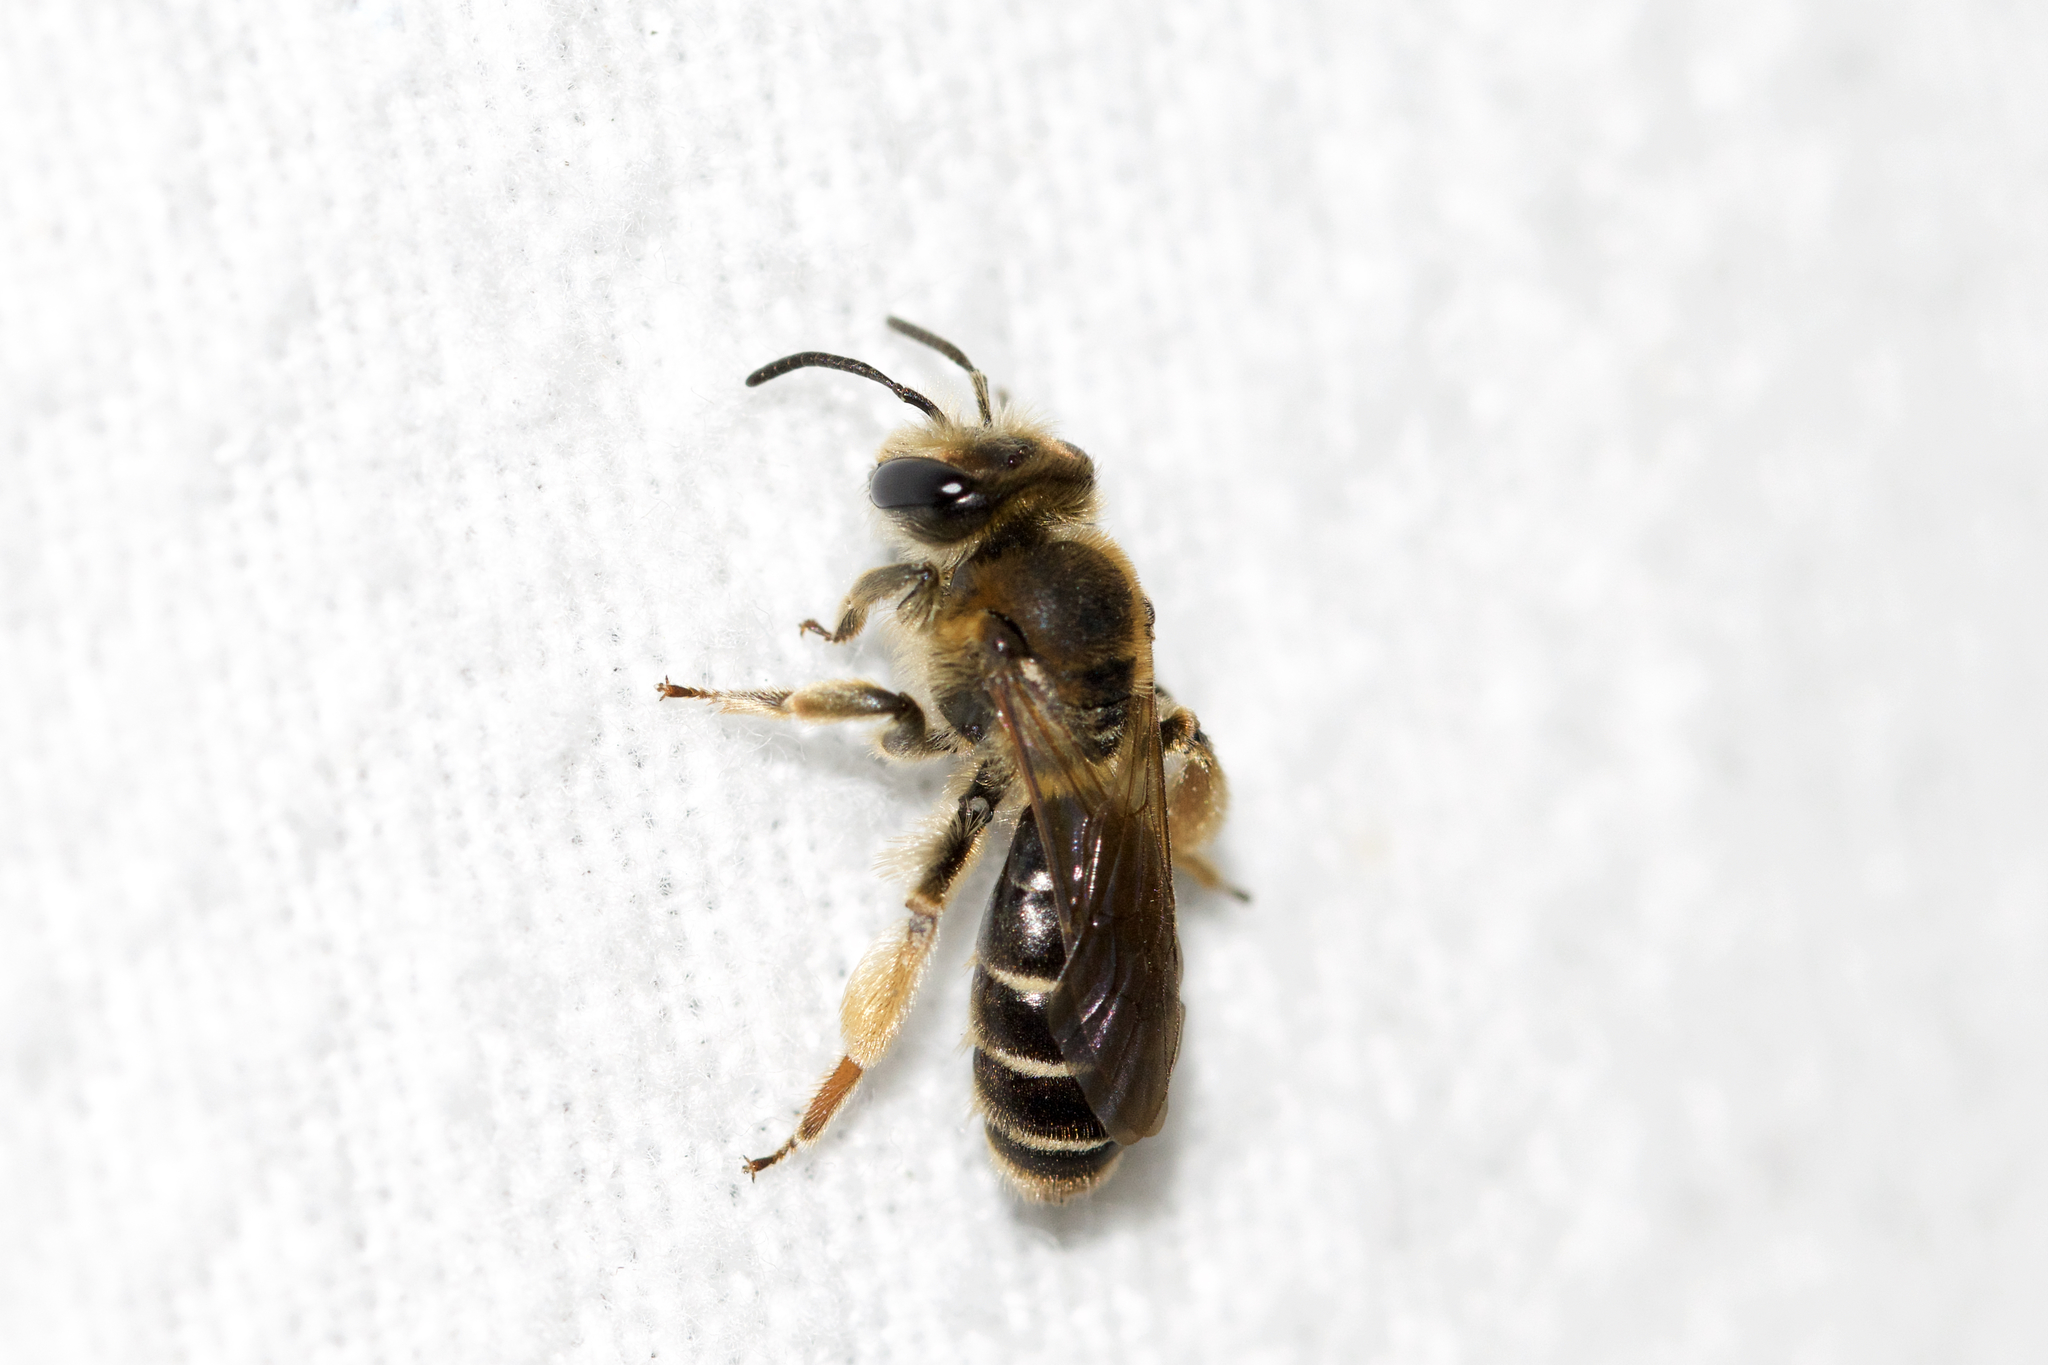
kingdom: Animalia
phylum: Arthropoda
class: Insecta
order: Hymenoptera
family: Andrenidae
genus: Andrena
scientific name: Andrena wilkella
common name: Wilke's mining bee
